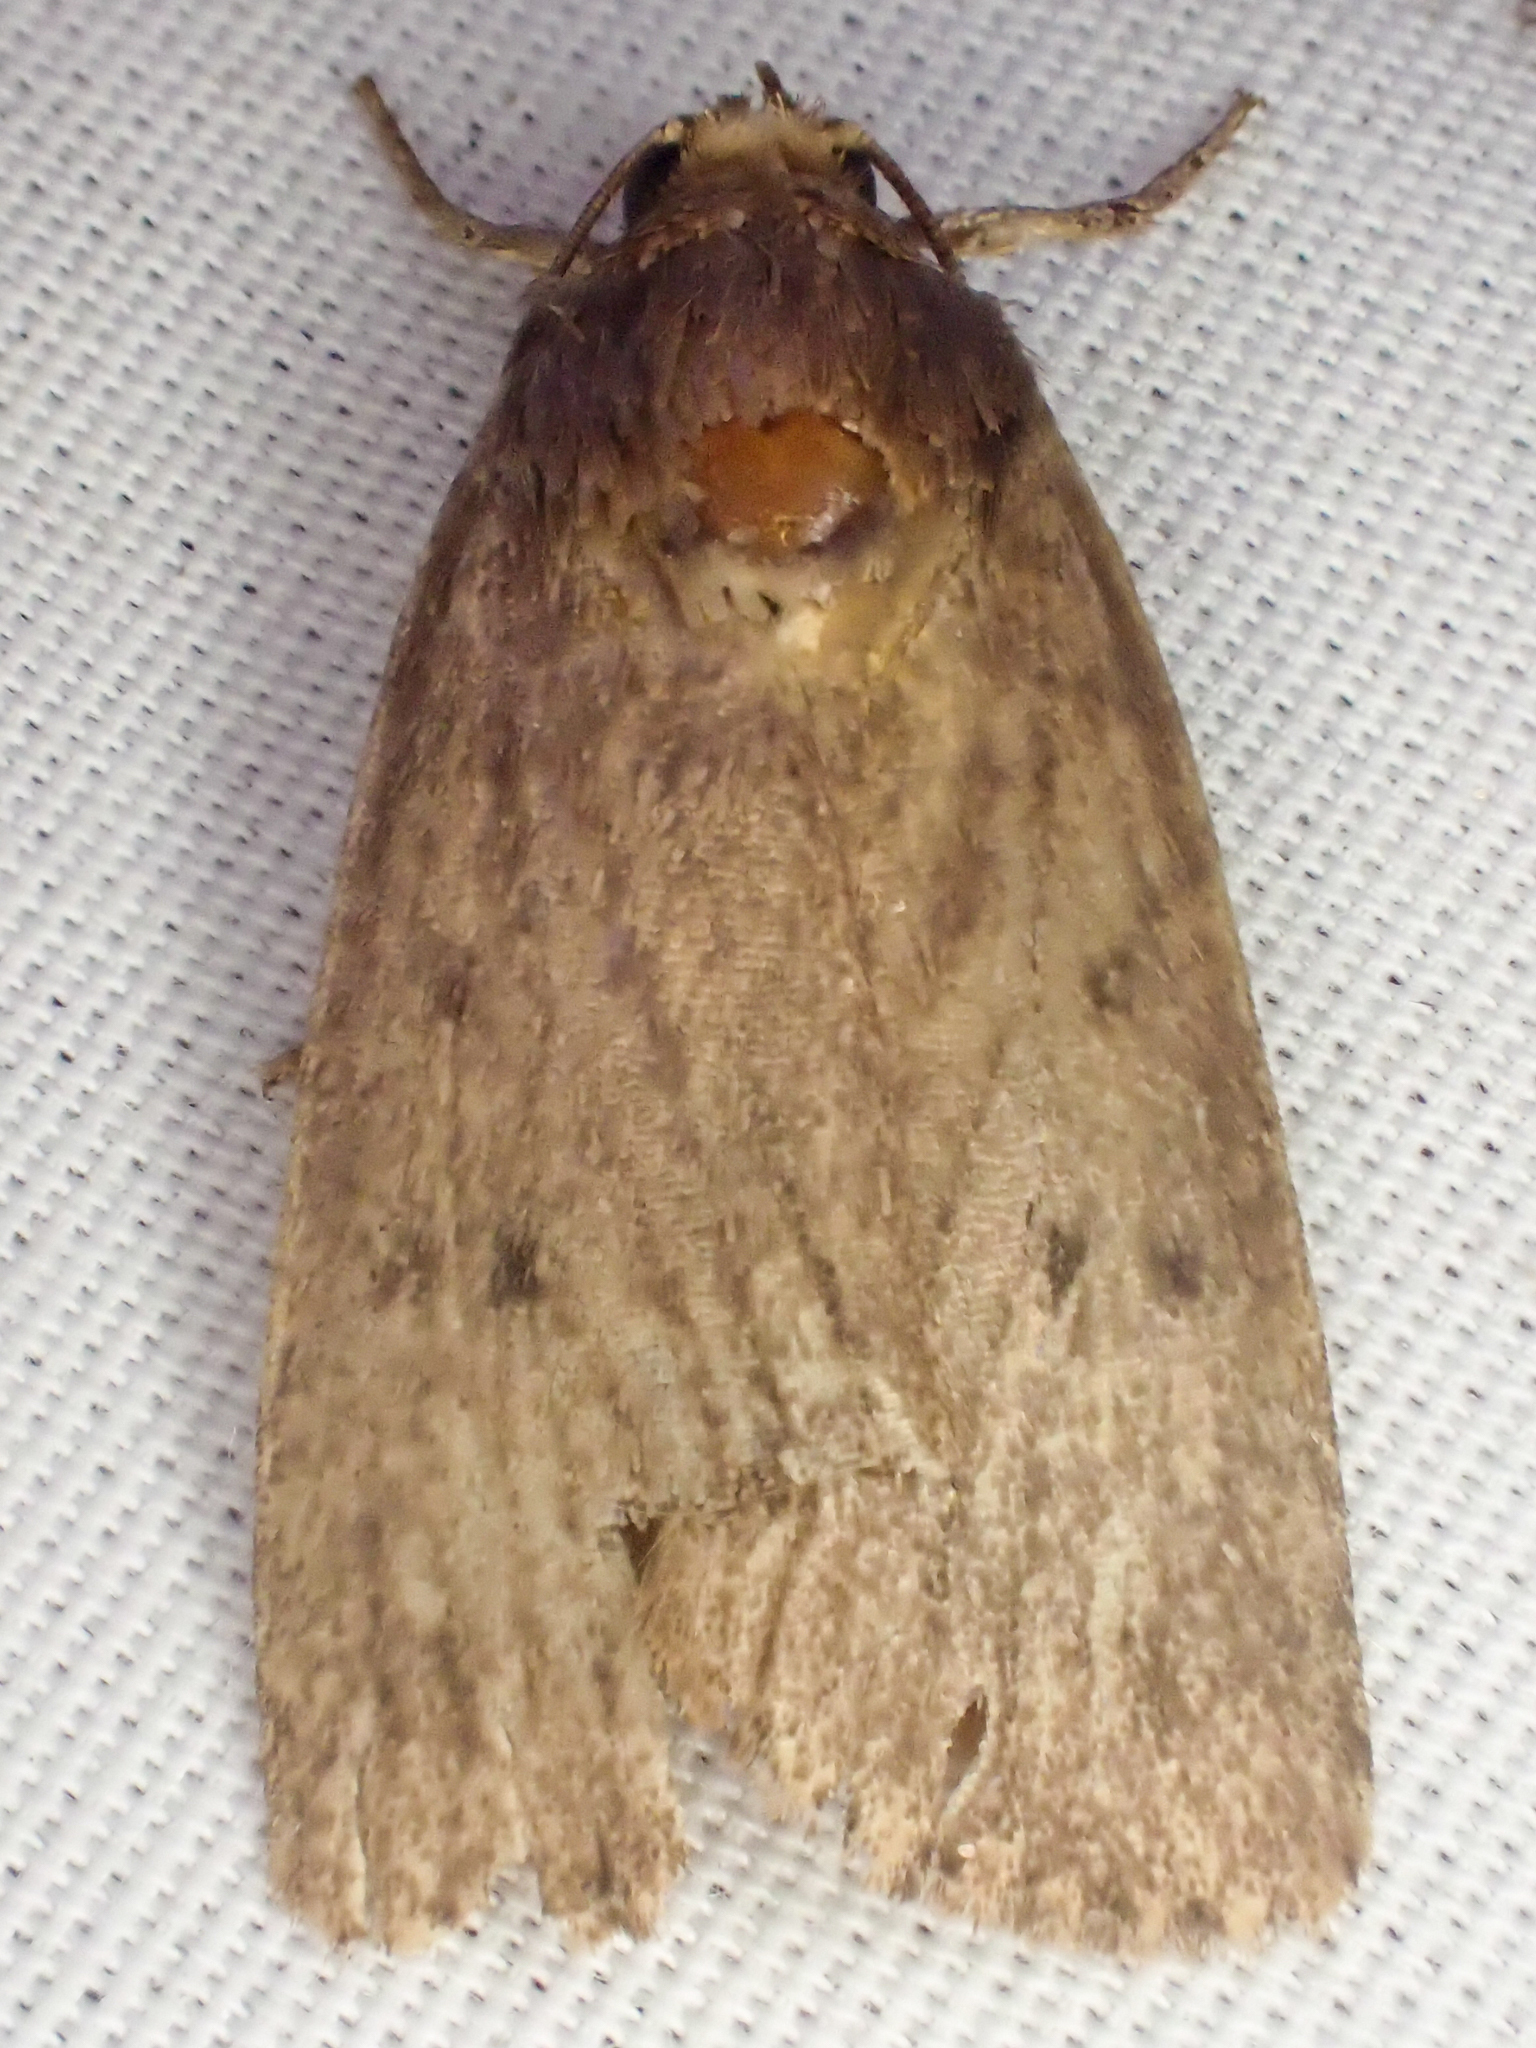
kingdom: Animalia
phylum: Arthropoda
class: Insecta
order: Lepidoptera
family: Noctuidae
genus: Amphipyra
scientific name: Amphipyra tragopoginis
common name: Mouse moth
